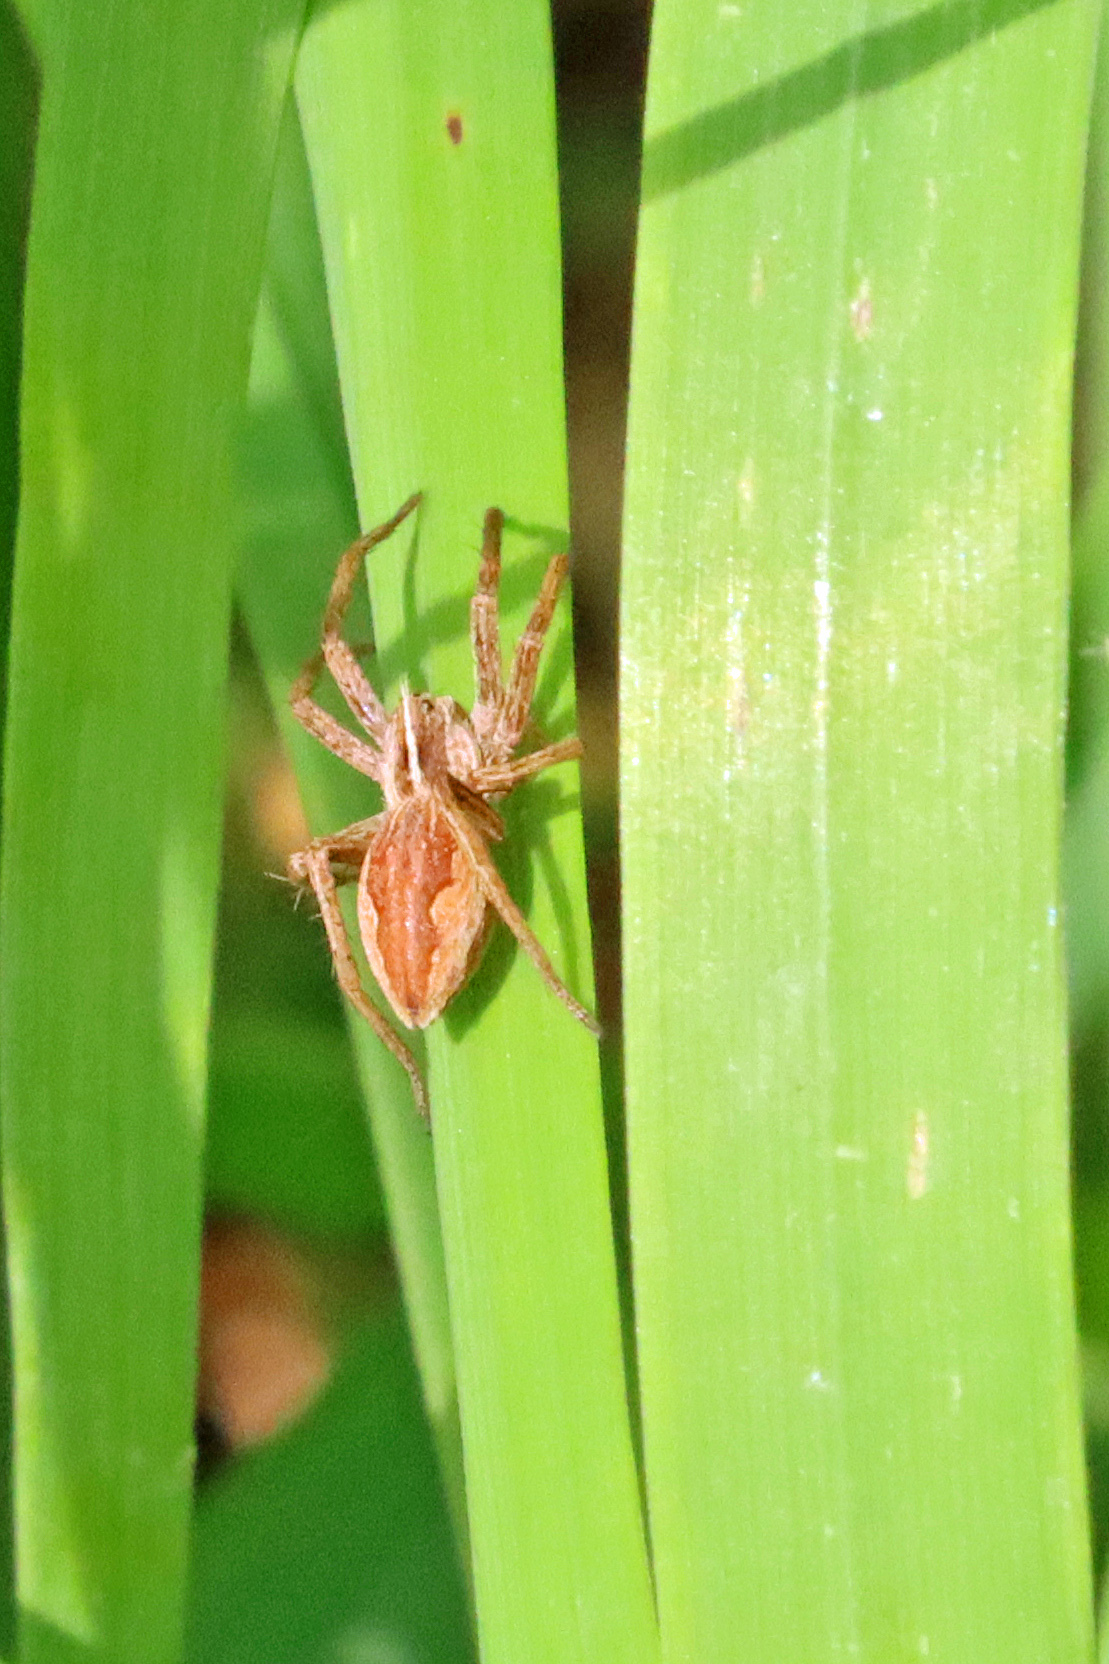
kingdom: Animalia
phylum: Arthropoda
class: Arachnida
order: Araneae
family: Pisauridae
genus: Pisaura
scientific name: Pisaura mirabilis
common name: Tent spider
